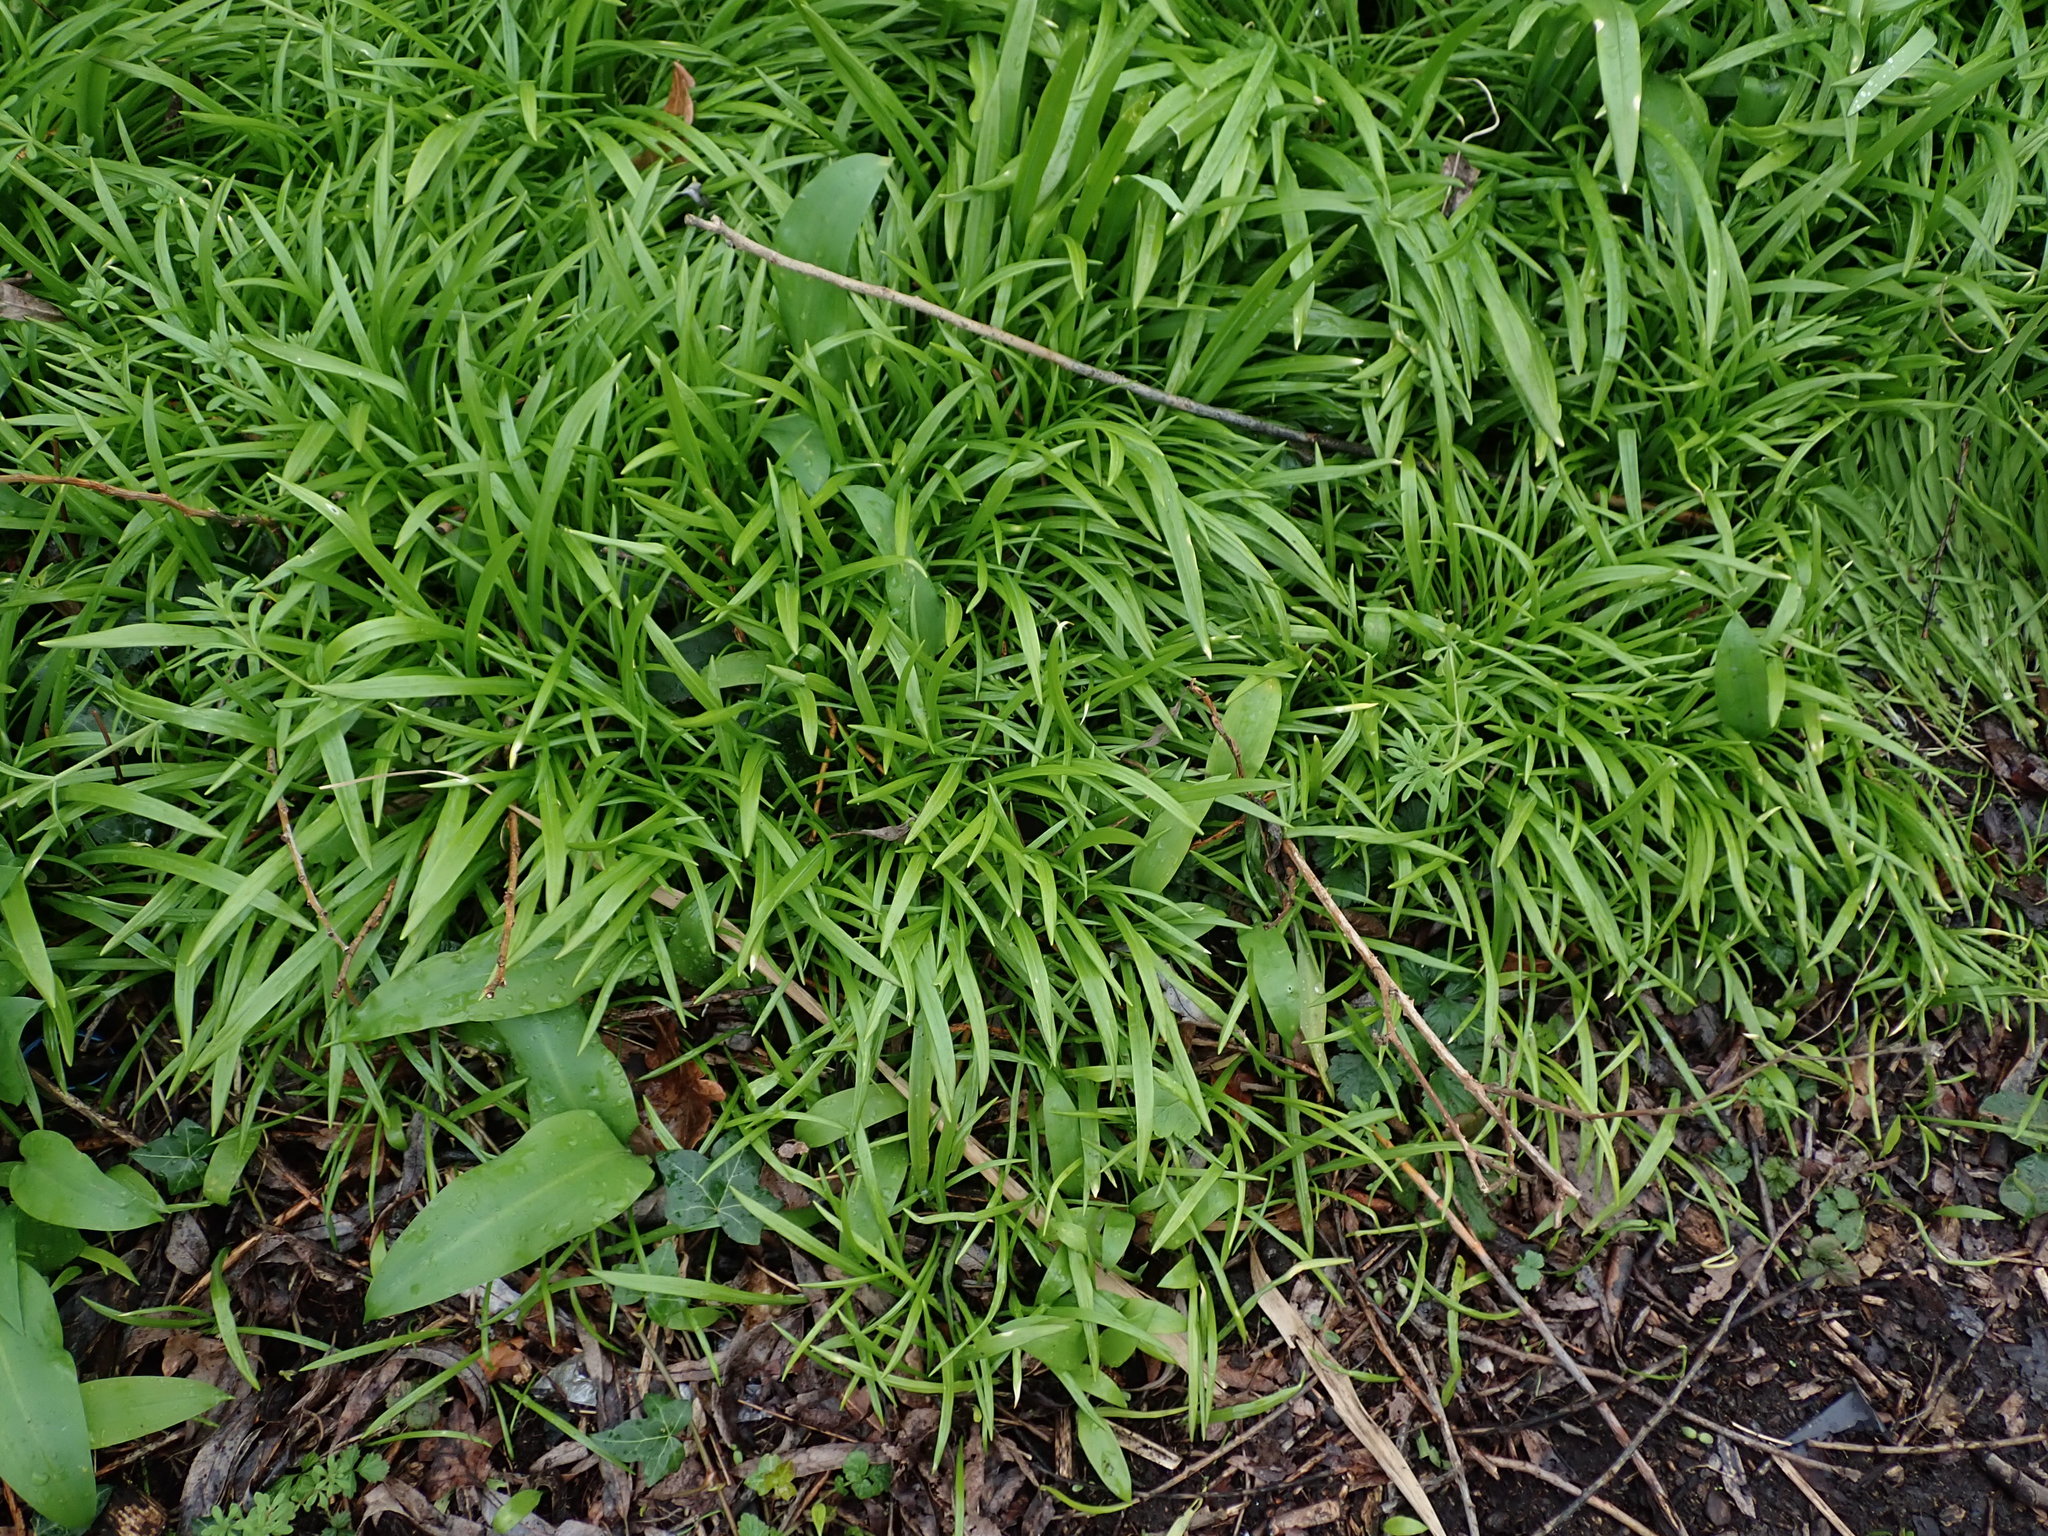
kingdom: Plantae
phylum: Tracheophyta
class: Liliopsida
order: Asparagales
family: Amaryllidaceae
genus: Allium
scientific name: Allium paradoxum
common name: Few-flowered garlic
